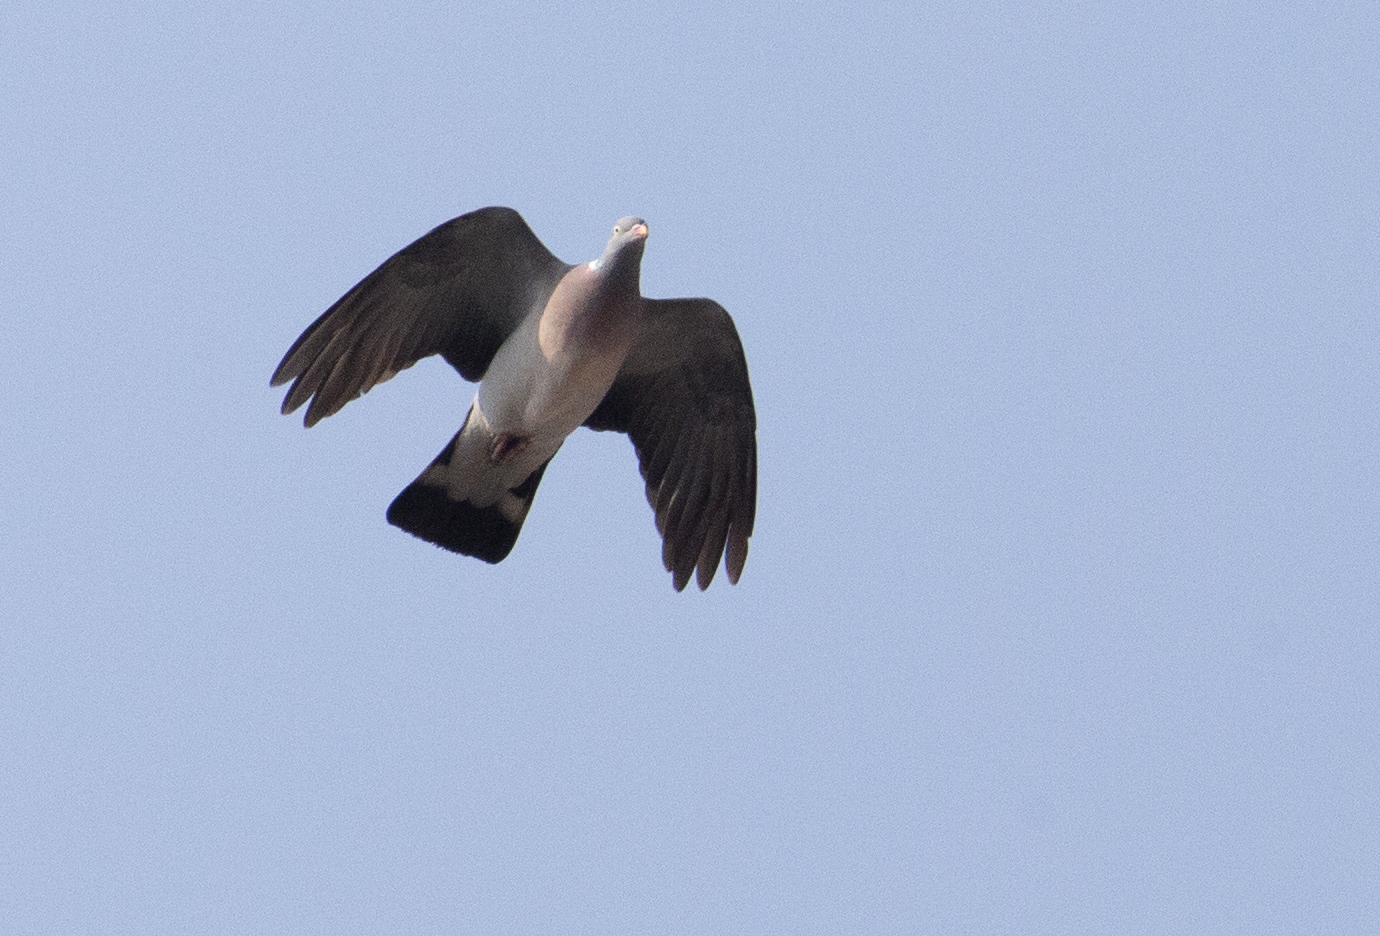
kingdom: Animalia
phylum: Chordata
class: Aves
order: Columbiformes
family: Columbidae
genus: Columba
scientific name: Columba palumbus
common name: Common wood pigeon
